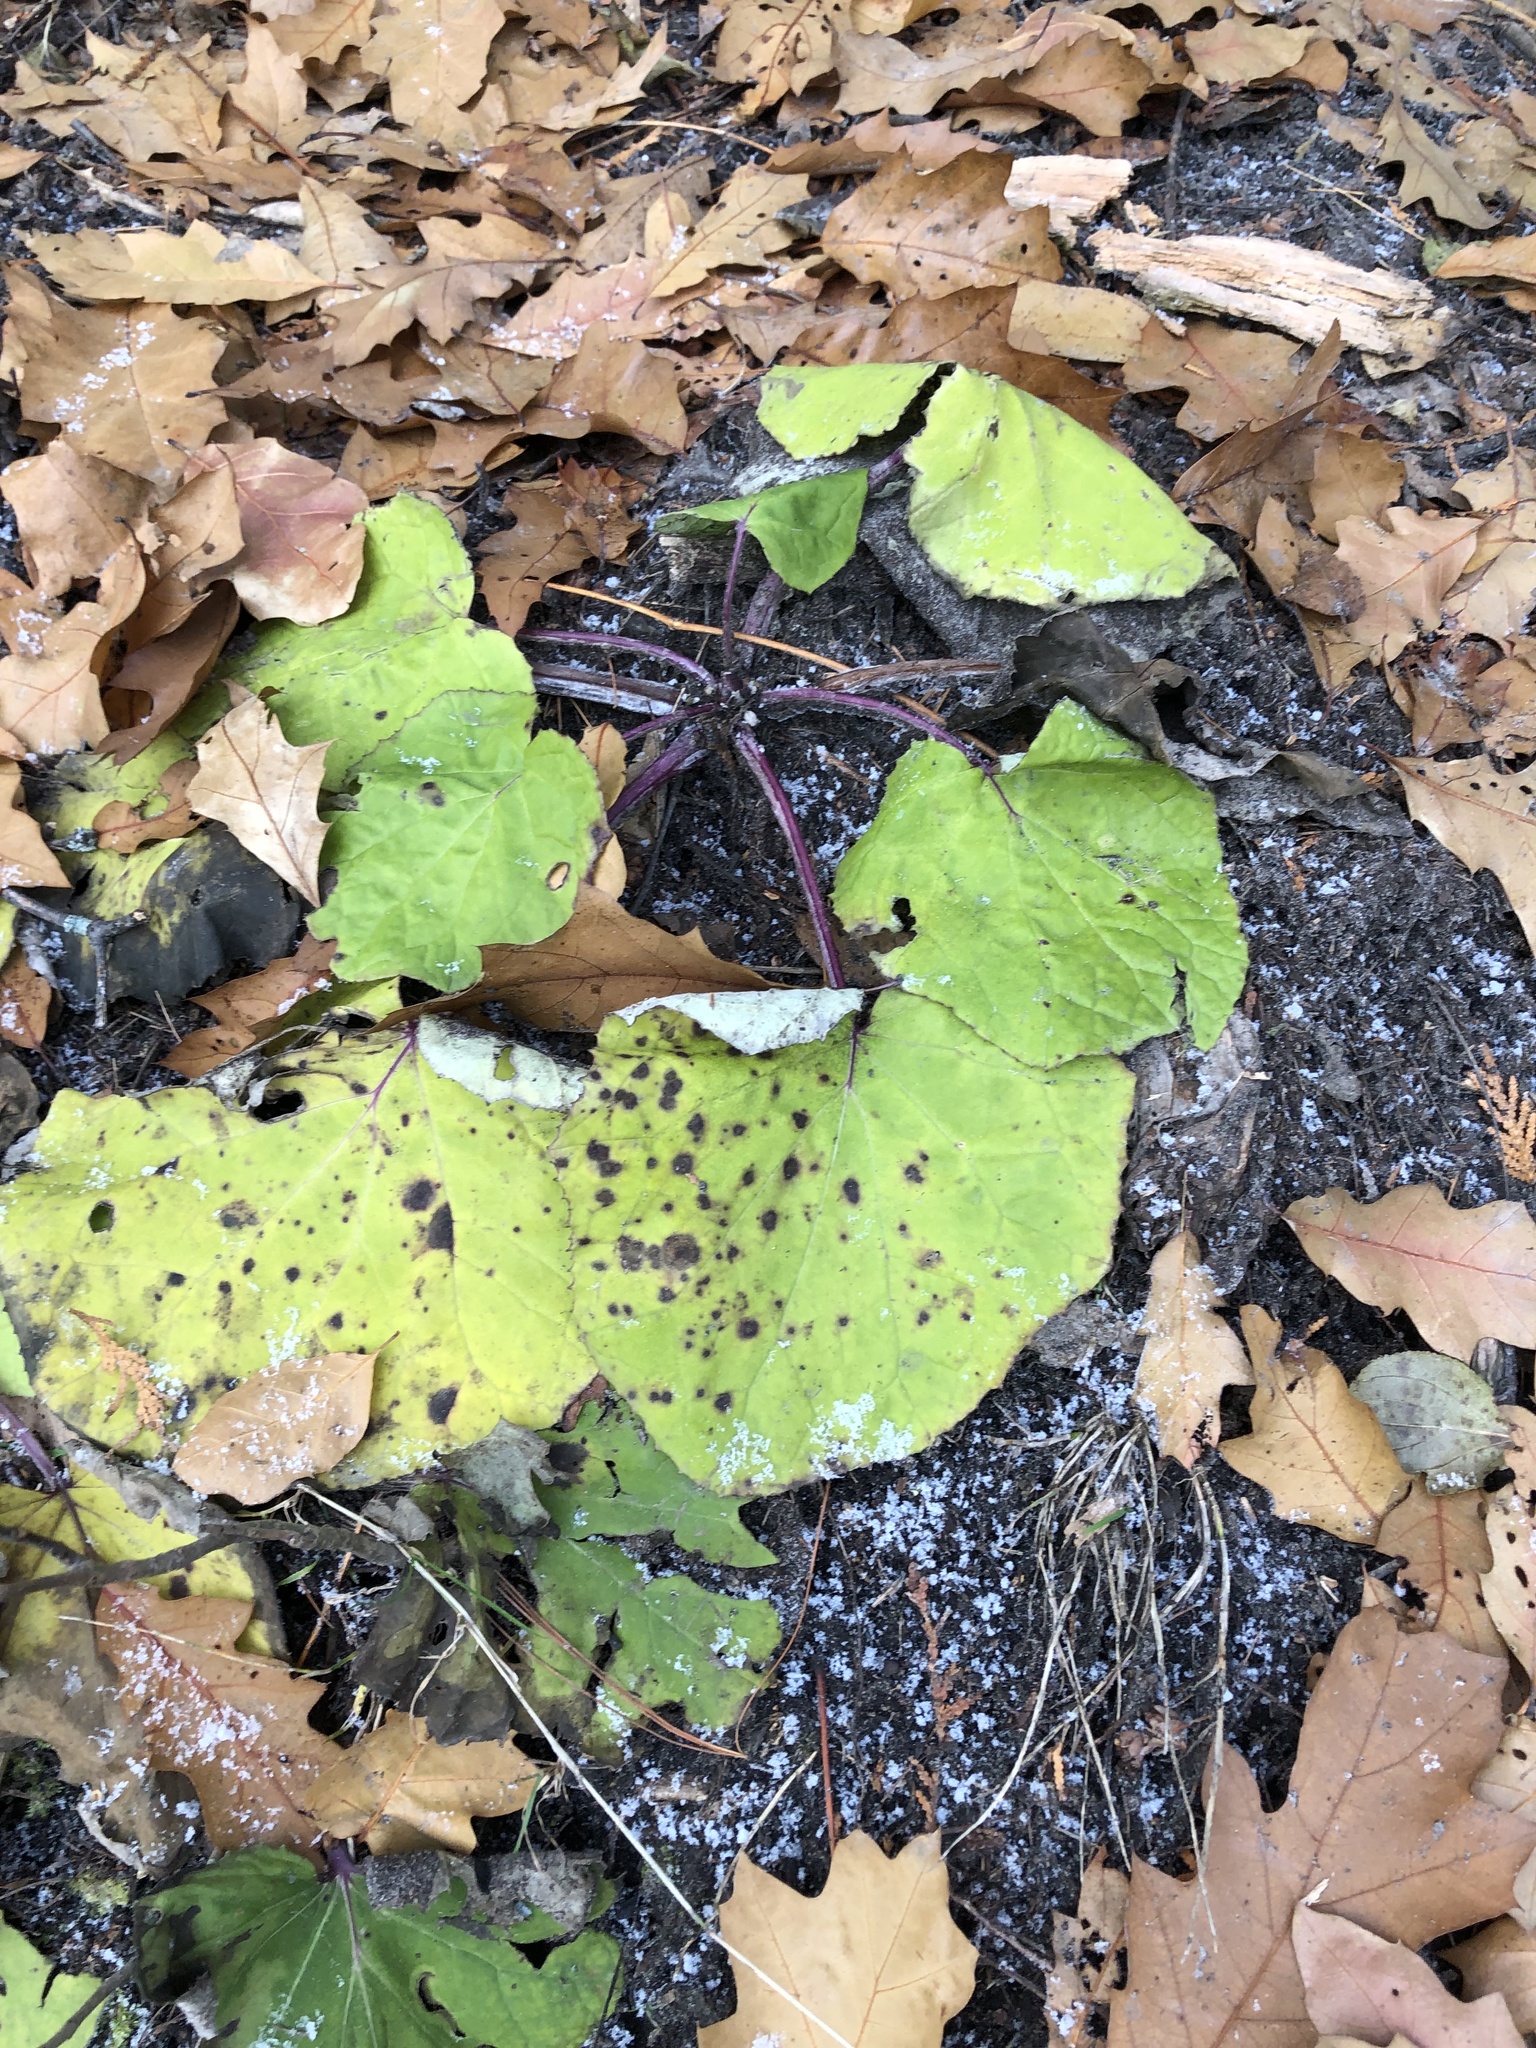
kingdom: Plantae
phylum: Tracheophyta
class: Magnoliopsida
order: Asterales
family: Asteraceae
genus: Tussilago
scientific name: Tussilago farfara
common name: Coltsfoot
